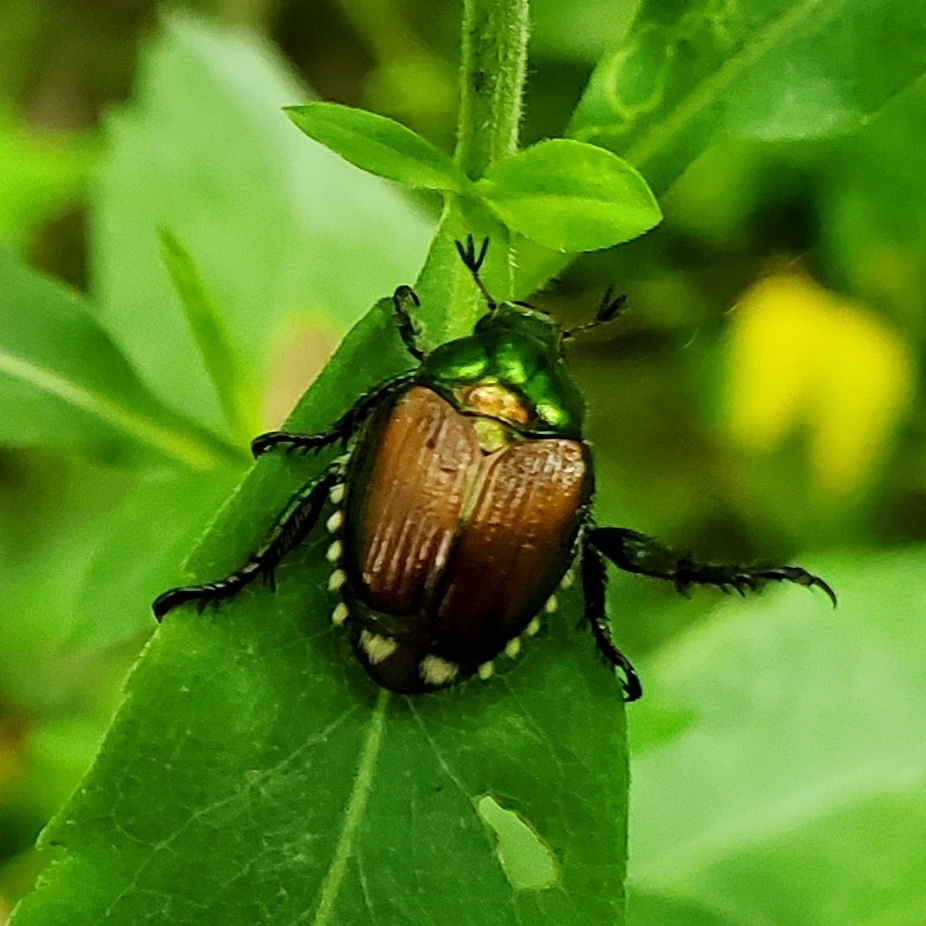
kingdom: Animalia
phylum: Arthropoda
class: Insecta
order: Coleoptera
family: Scarabaeidae
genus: Popillia
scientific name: Popillia japonica
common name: Japanese beetle
